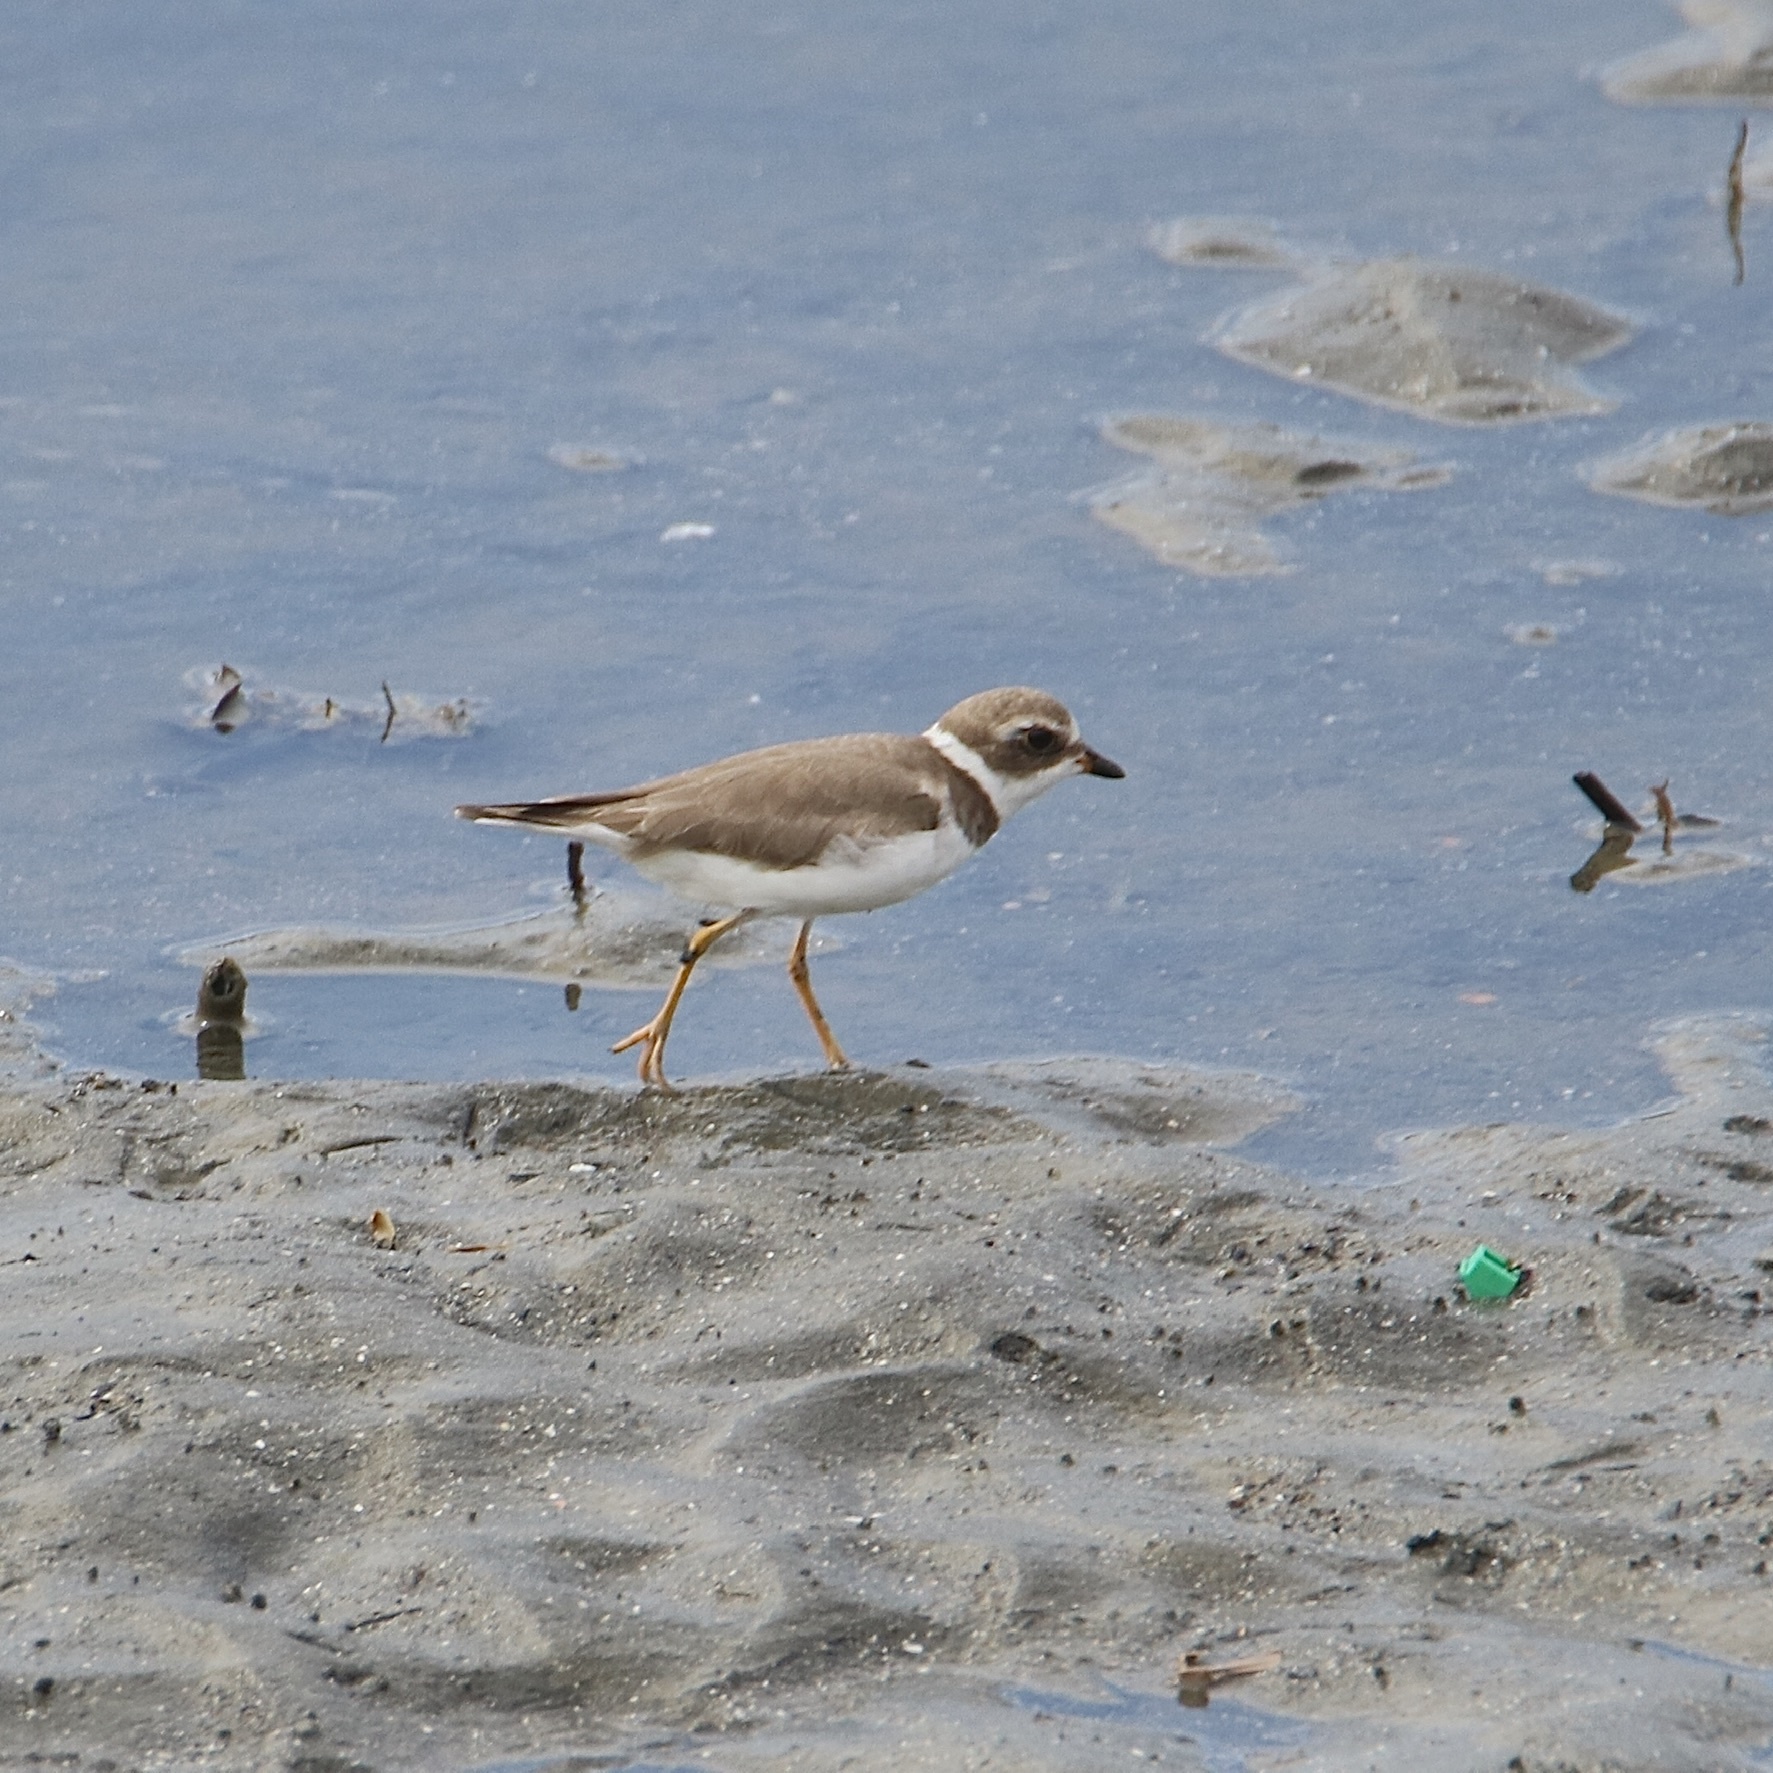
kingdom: Animalia
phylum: Chordata
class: Aves
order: Charadriiformes
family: Charadriidae
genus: Charadrius
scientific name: Charadrius semipalmatus
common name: Semipalmated plover
